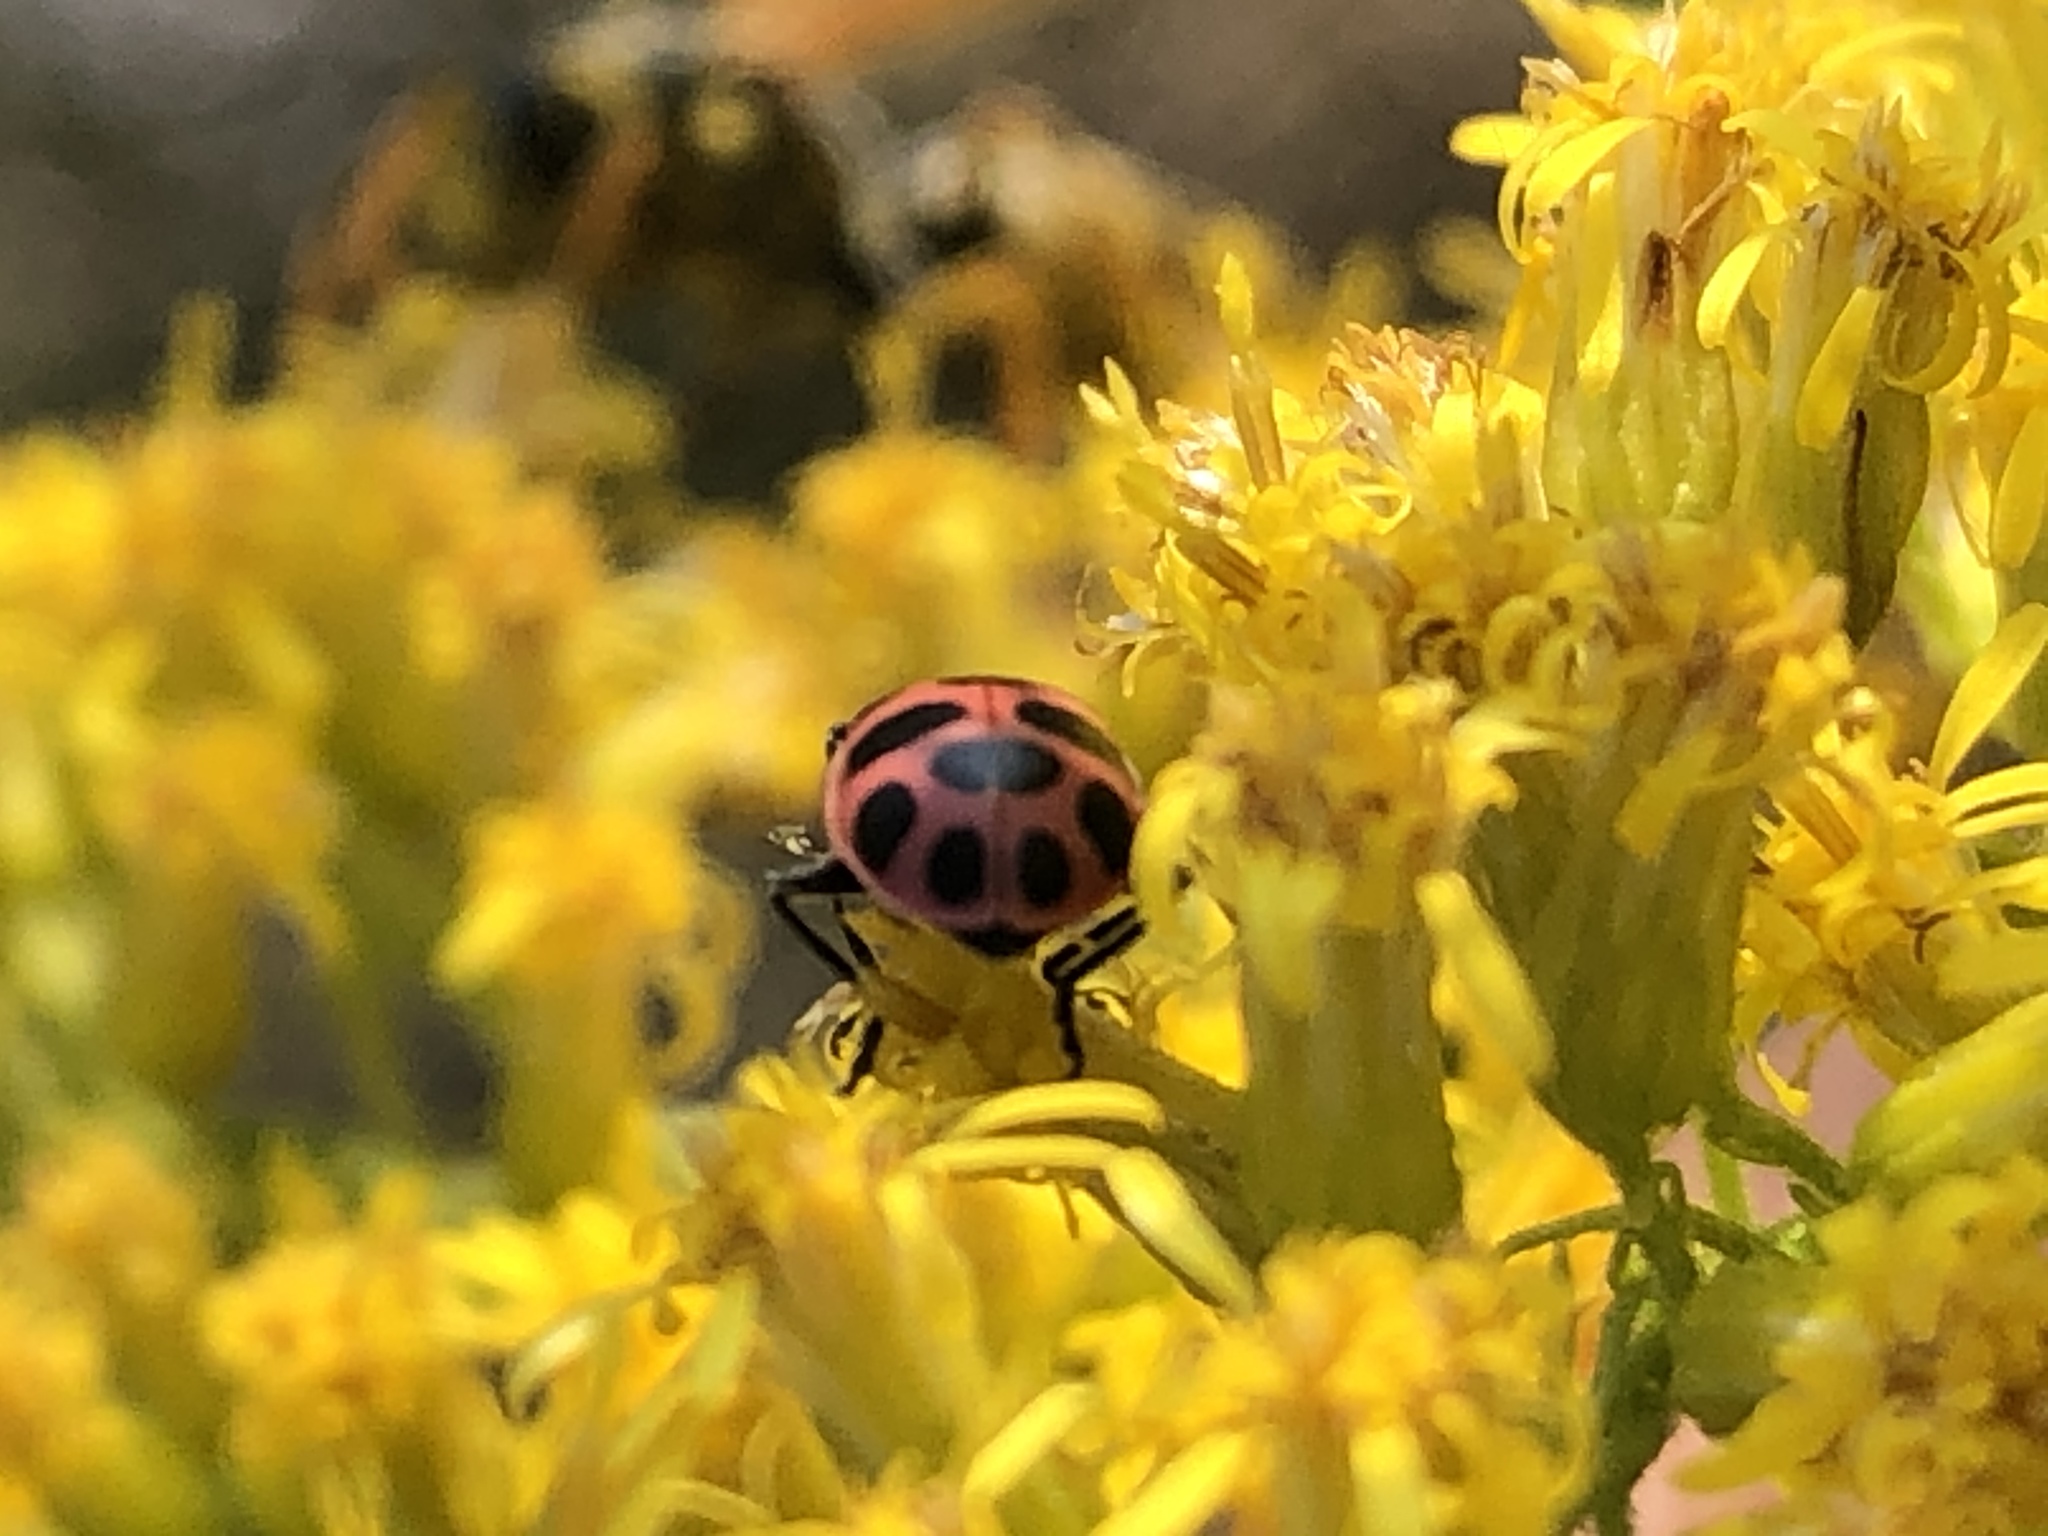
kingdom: Animalia
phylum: Arthropoda
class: Insecta
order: Coleoptera
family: Coccinellidae
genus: Coleomegilla
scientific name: Coleomegilla maculata
